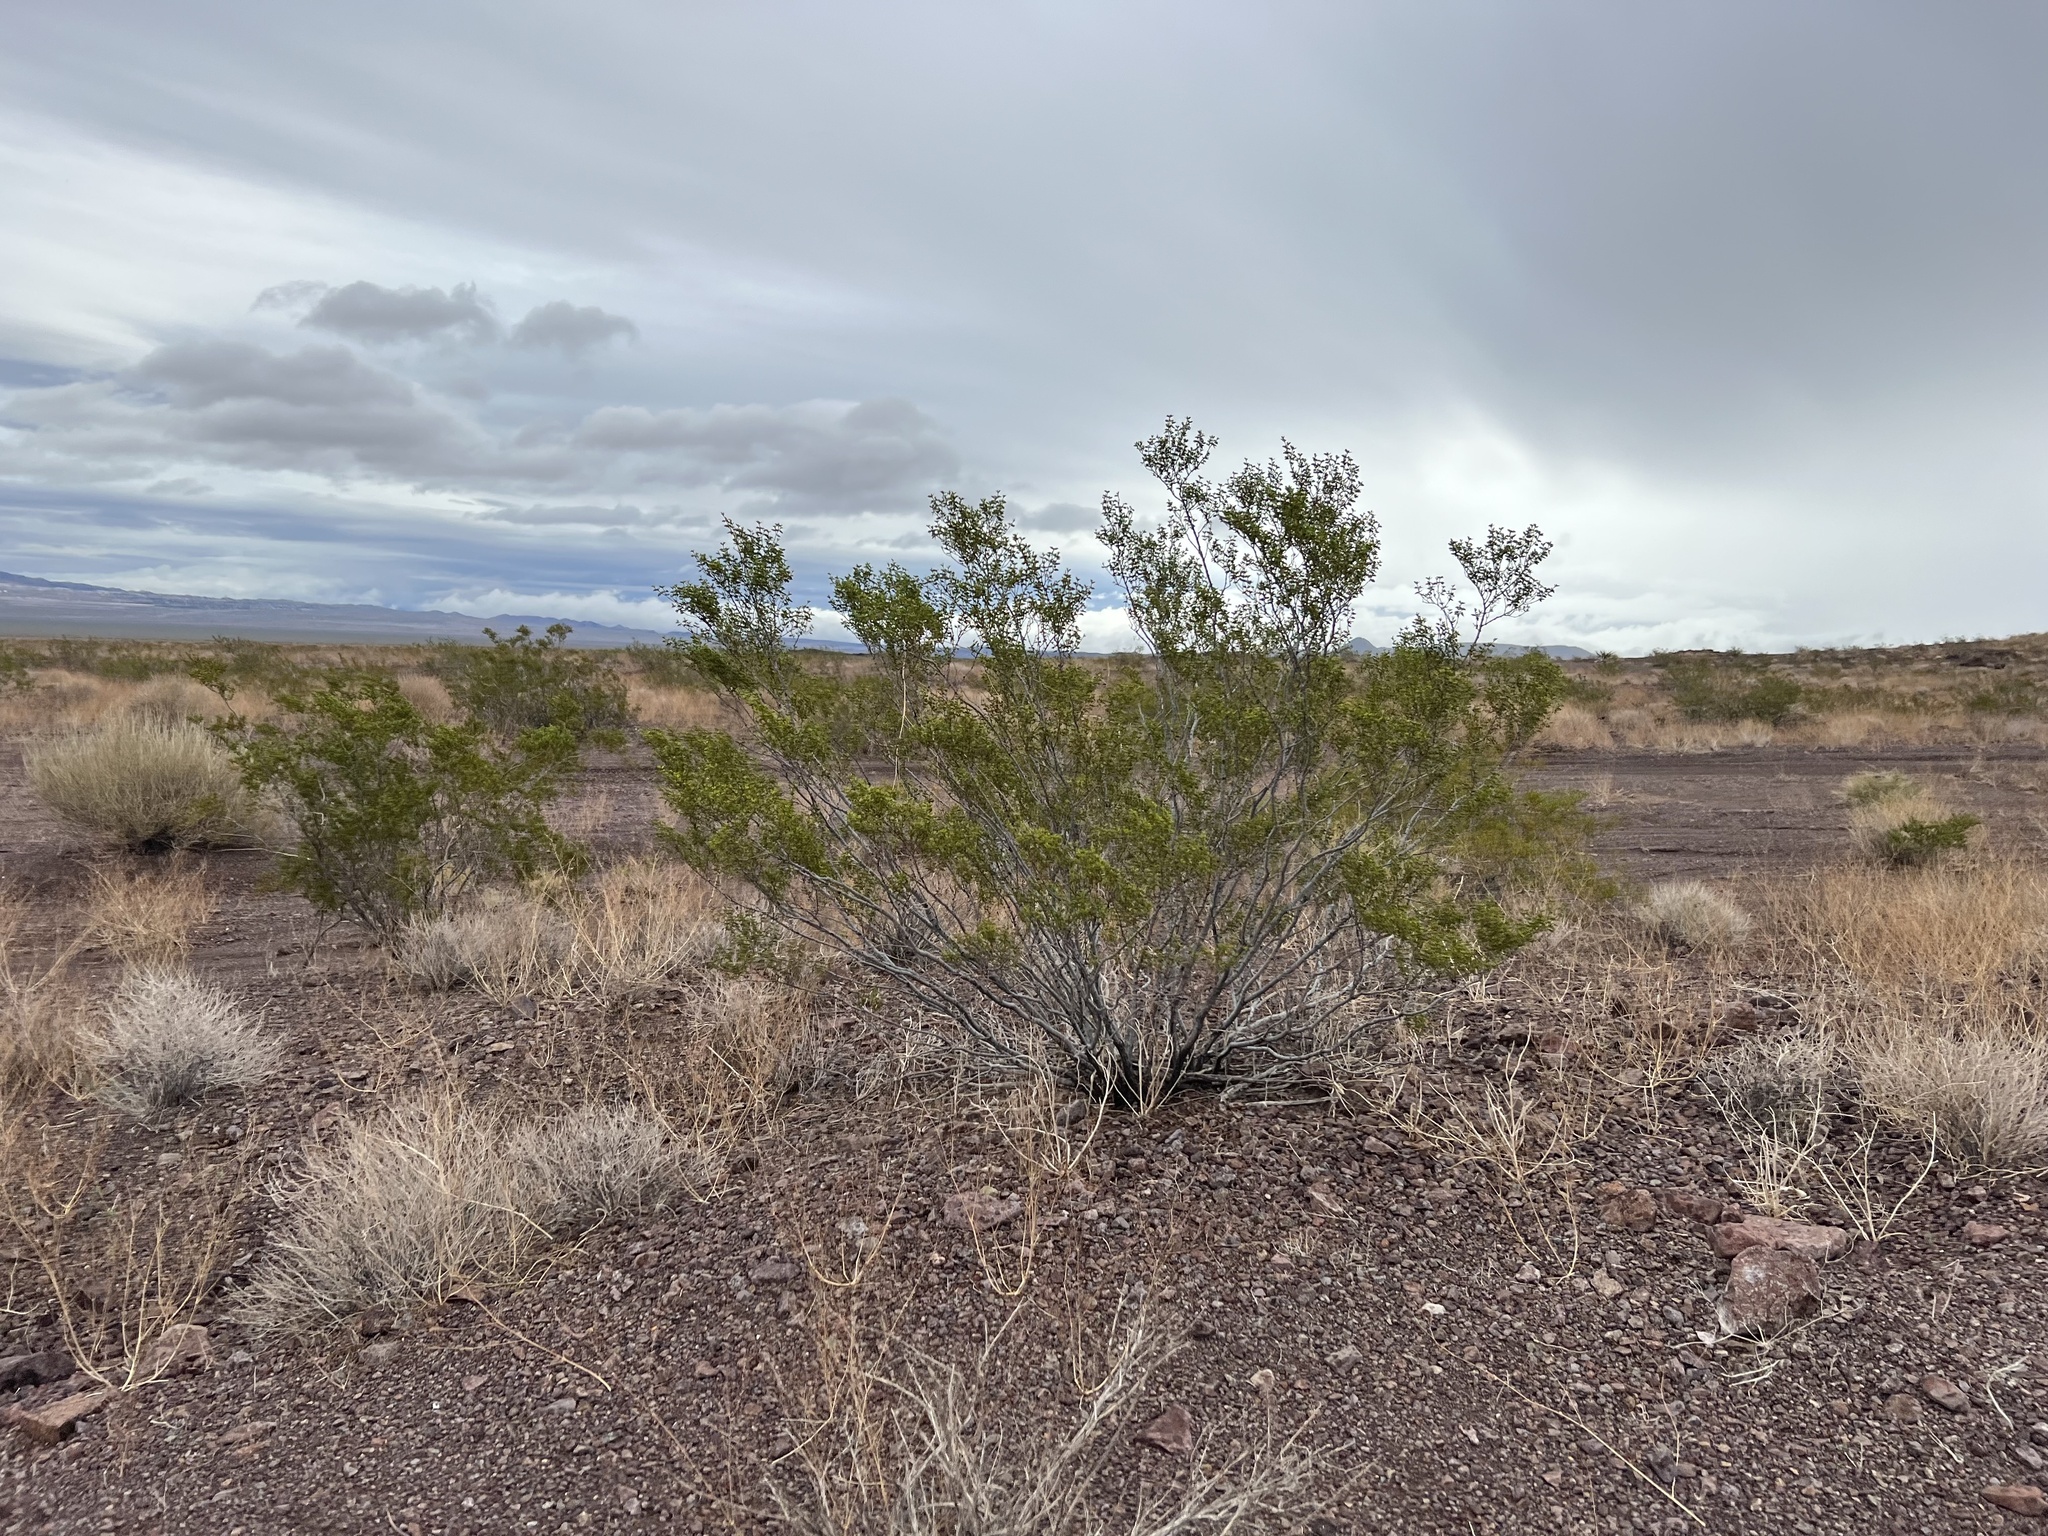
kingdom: Plantae
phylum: Tracheophyta
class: Magnoliopsida
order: Zygophyllales
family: Zygophyllaceae
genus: Larrea
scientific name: Larrea tridentata
